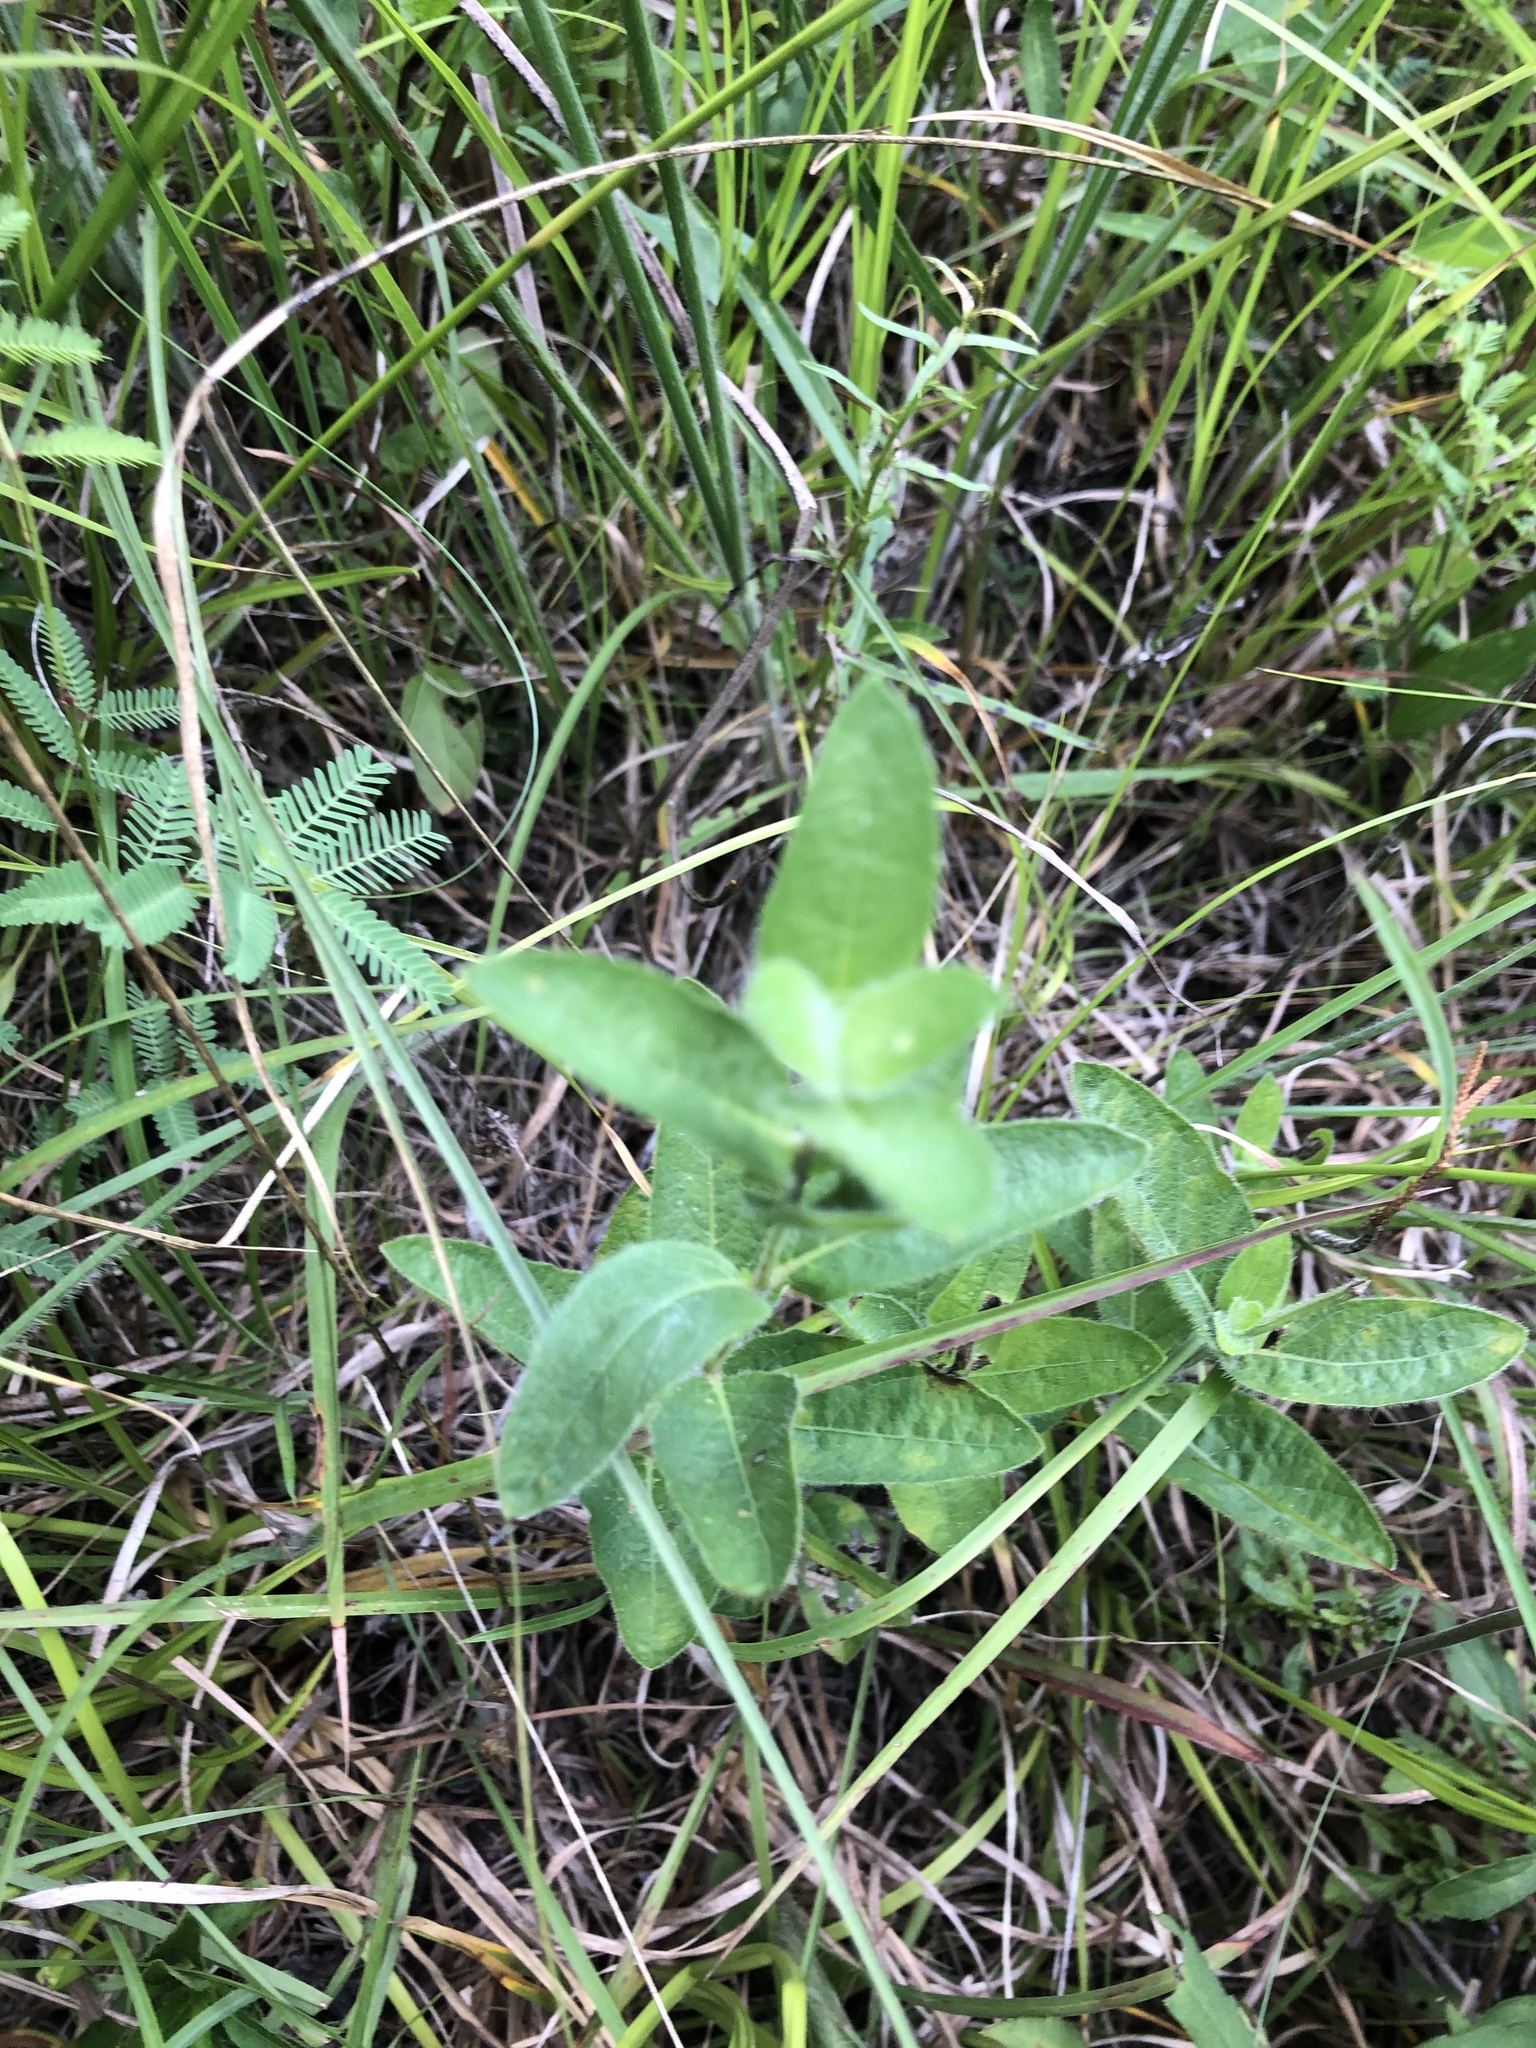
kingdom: Plantae
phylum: Tracheophyta
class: Magnoliopsida
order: Lamiales
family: Acanthaceae
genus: Ruellia
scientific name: Ruellia humilis
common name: Fringe-leaf ruellia
